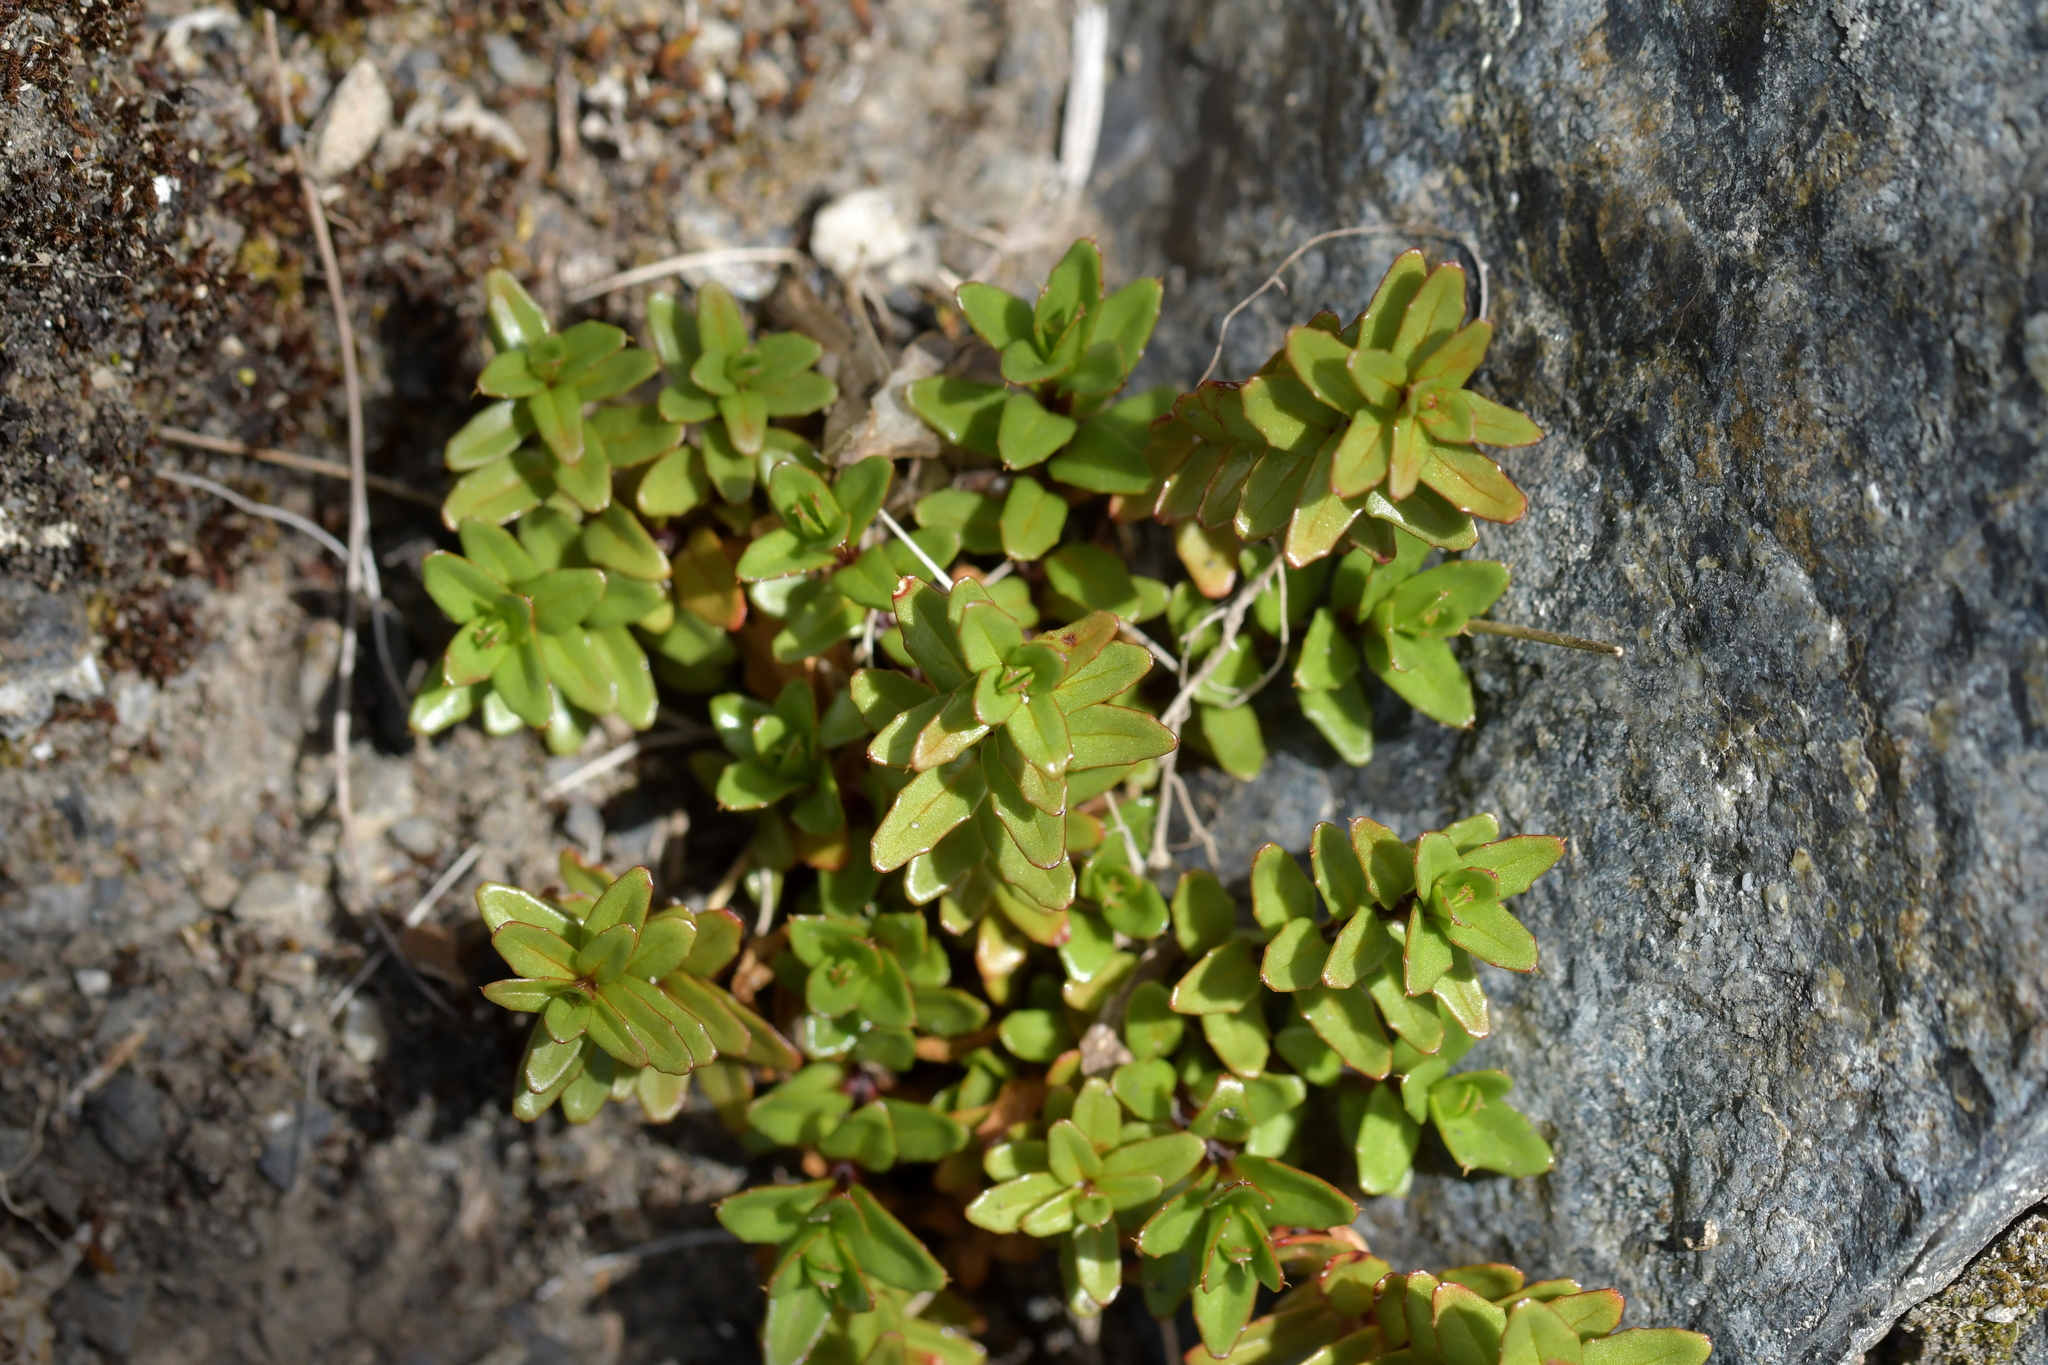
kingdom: Plantae
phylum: Tracheophyta
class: Magnoliopsida
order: Myrtales
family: Onagraceae
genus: Epilobium
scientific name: Epilobium glabellum
